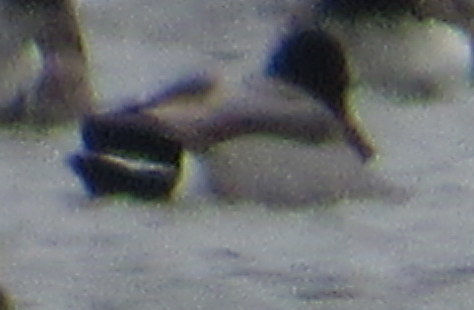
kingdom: Animalia
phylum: Chordata
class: Aves
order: Anseriformes
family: Anatidae
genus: Anas
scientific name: Anas platyrhynchos
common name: Mallard
